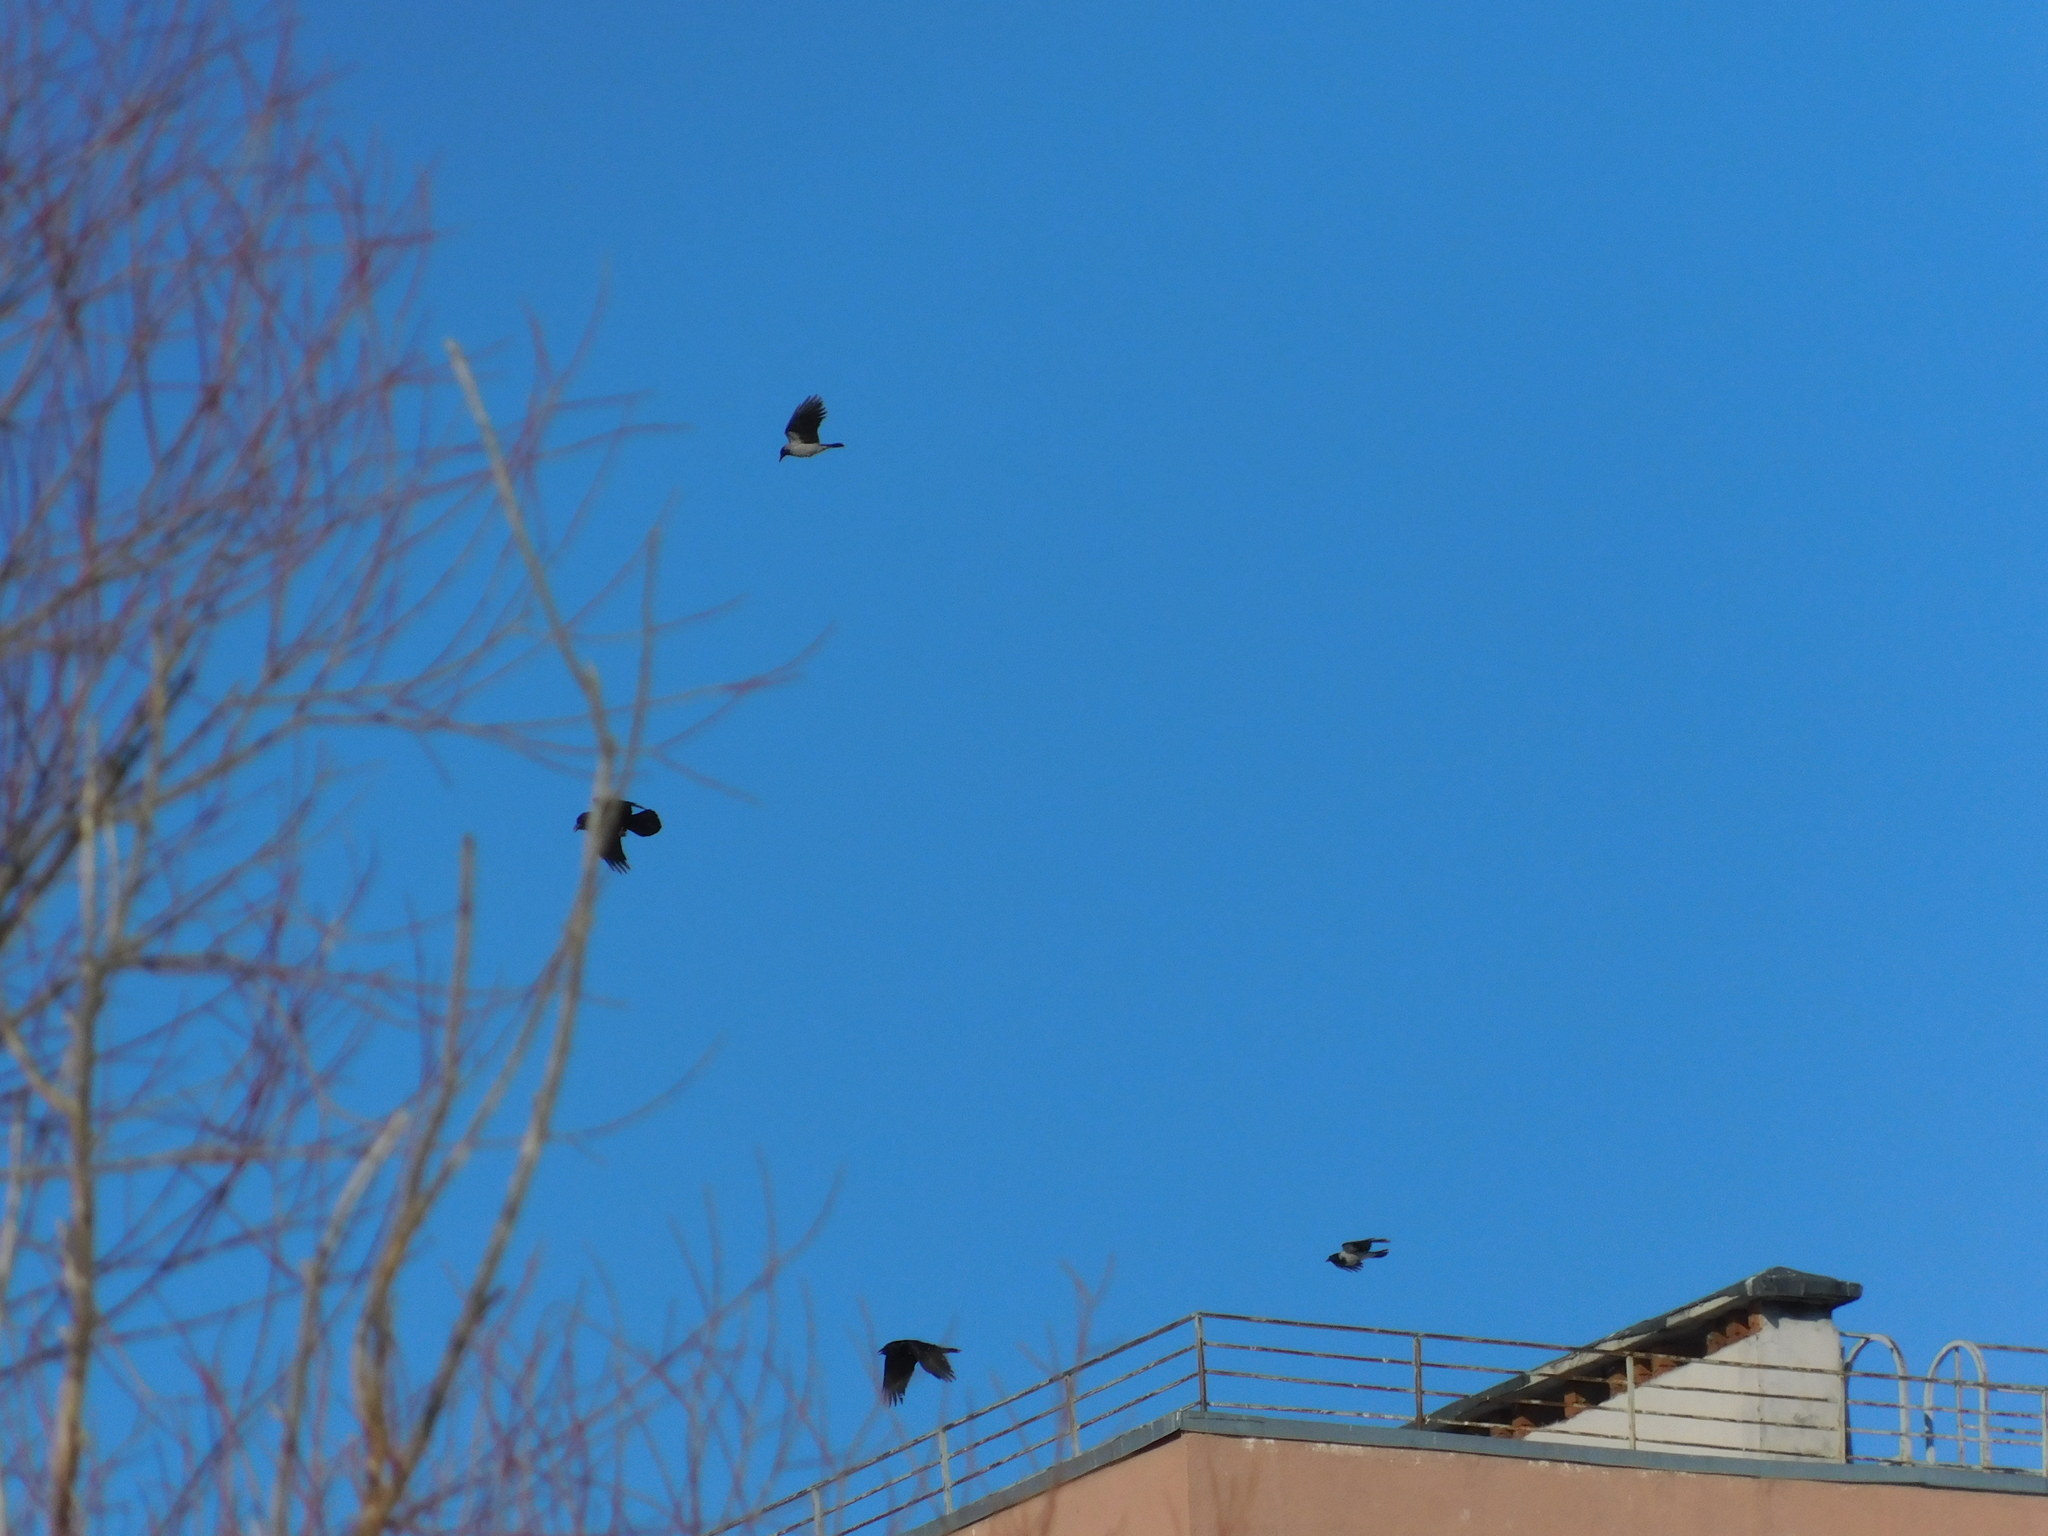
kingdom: Animalia
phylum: Chordata
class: Aves
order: Passeriformes
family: Corvidae
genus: Corvus
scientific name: Corvus corax
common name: Common raven
